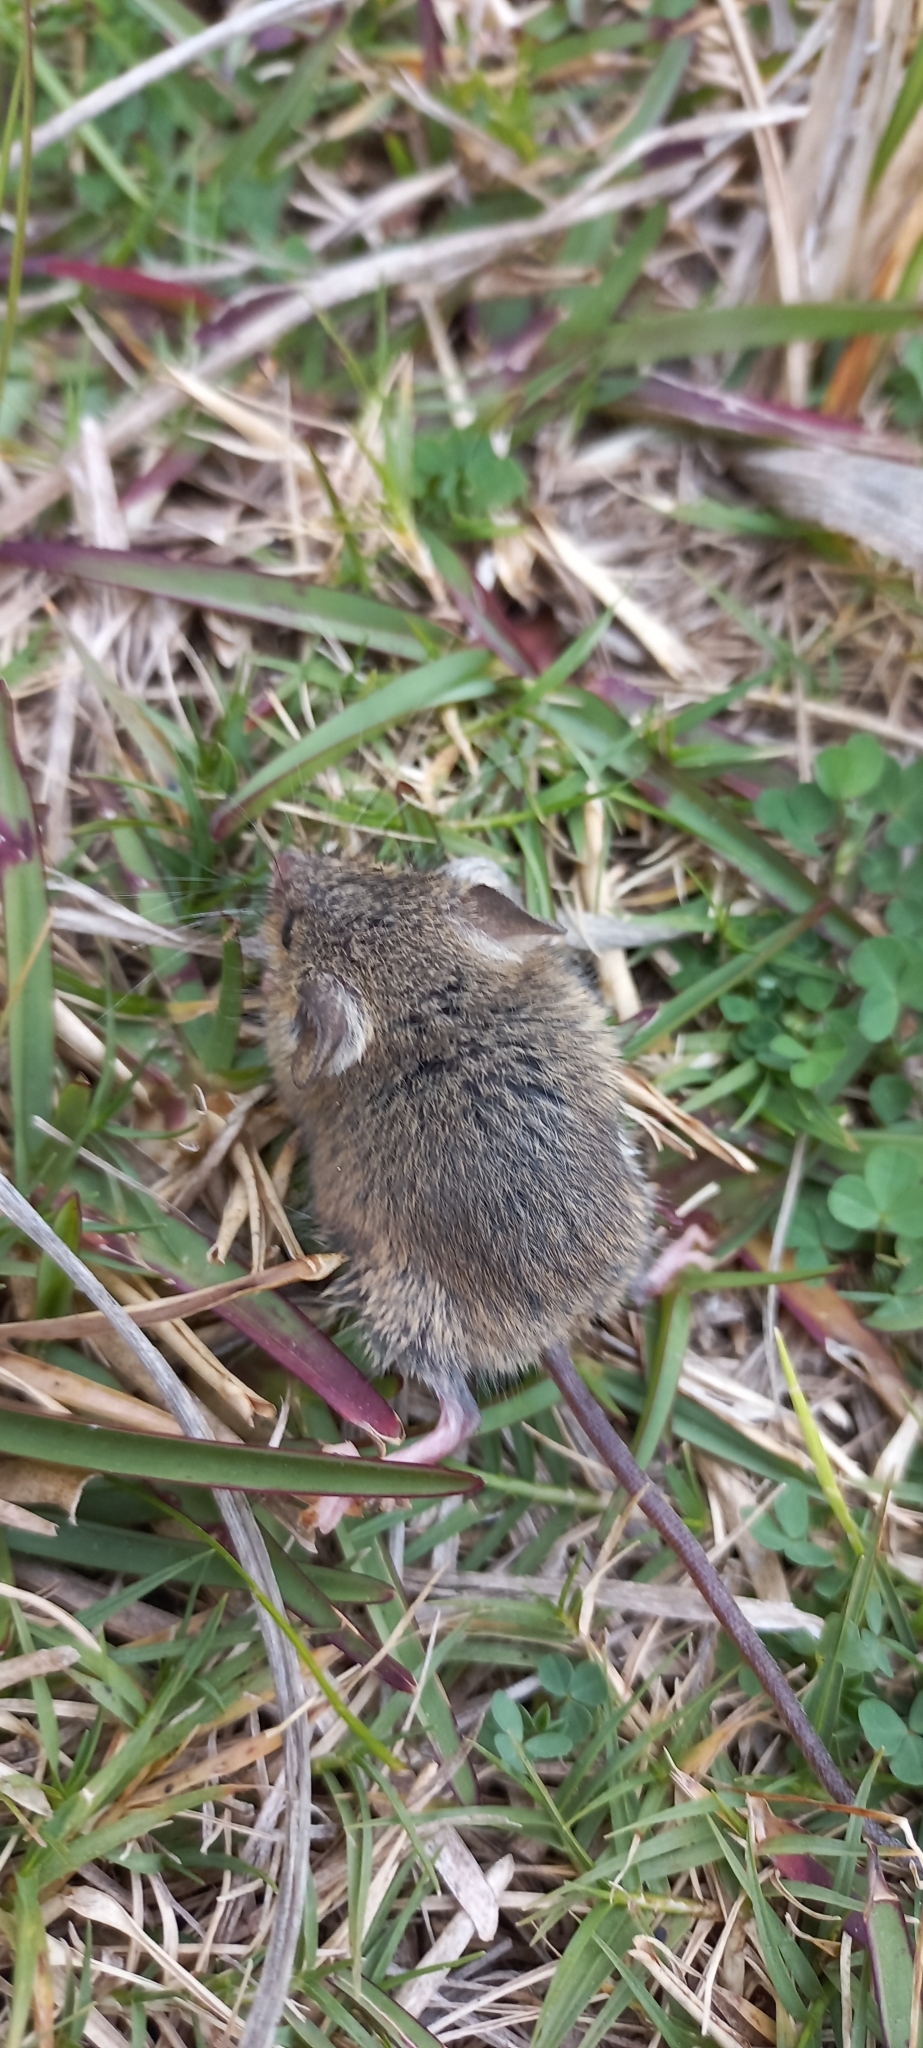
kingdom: Animalia
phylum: Chordata
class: Mammalia
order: Rodentia
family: Muridae
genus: Mus
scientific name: Mus minutoides
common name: Southern african pygmy mouse
